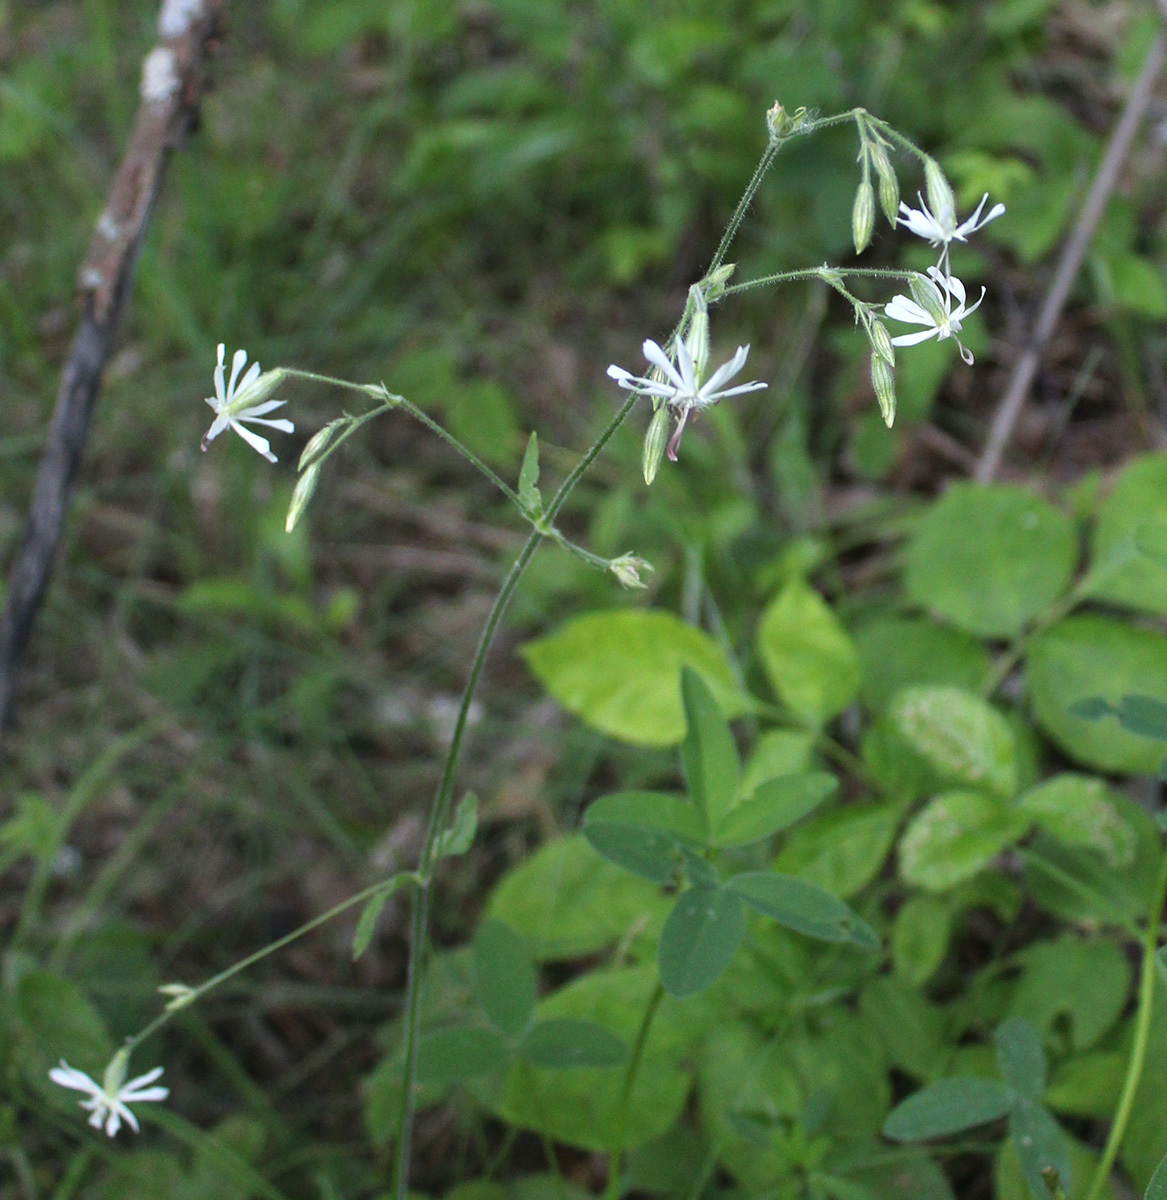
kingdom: Plantae
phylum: Tracheophyta
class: Magnoliopsida
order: Caryophyllales
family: Caryophyllaceae
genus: Silene
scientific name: Silene nutans
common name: Nottingham catchfly
